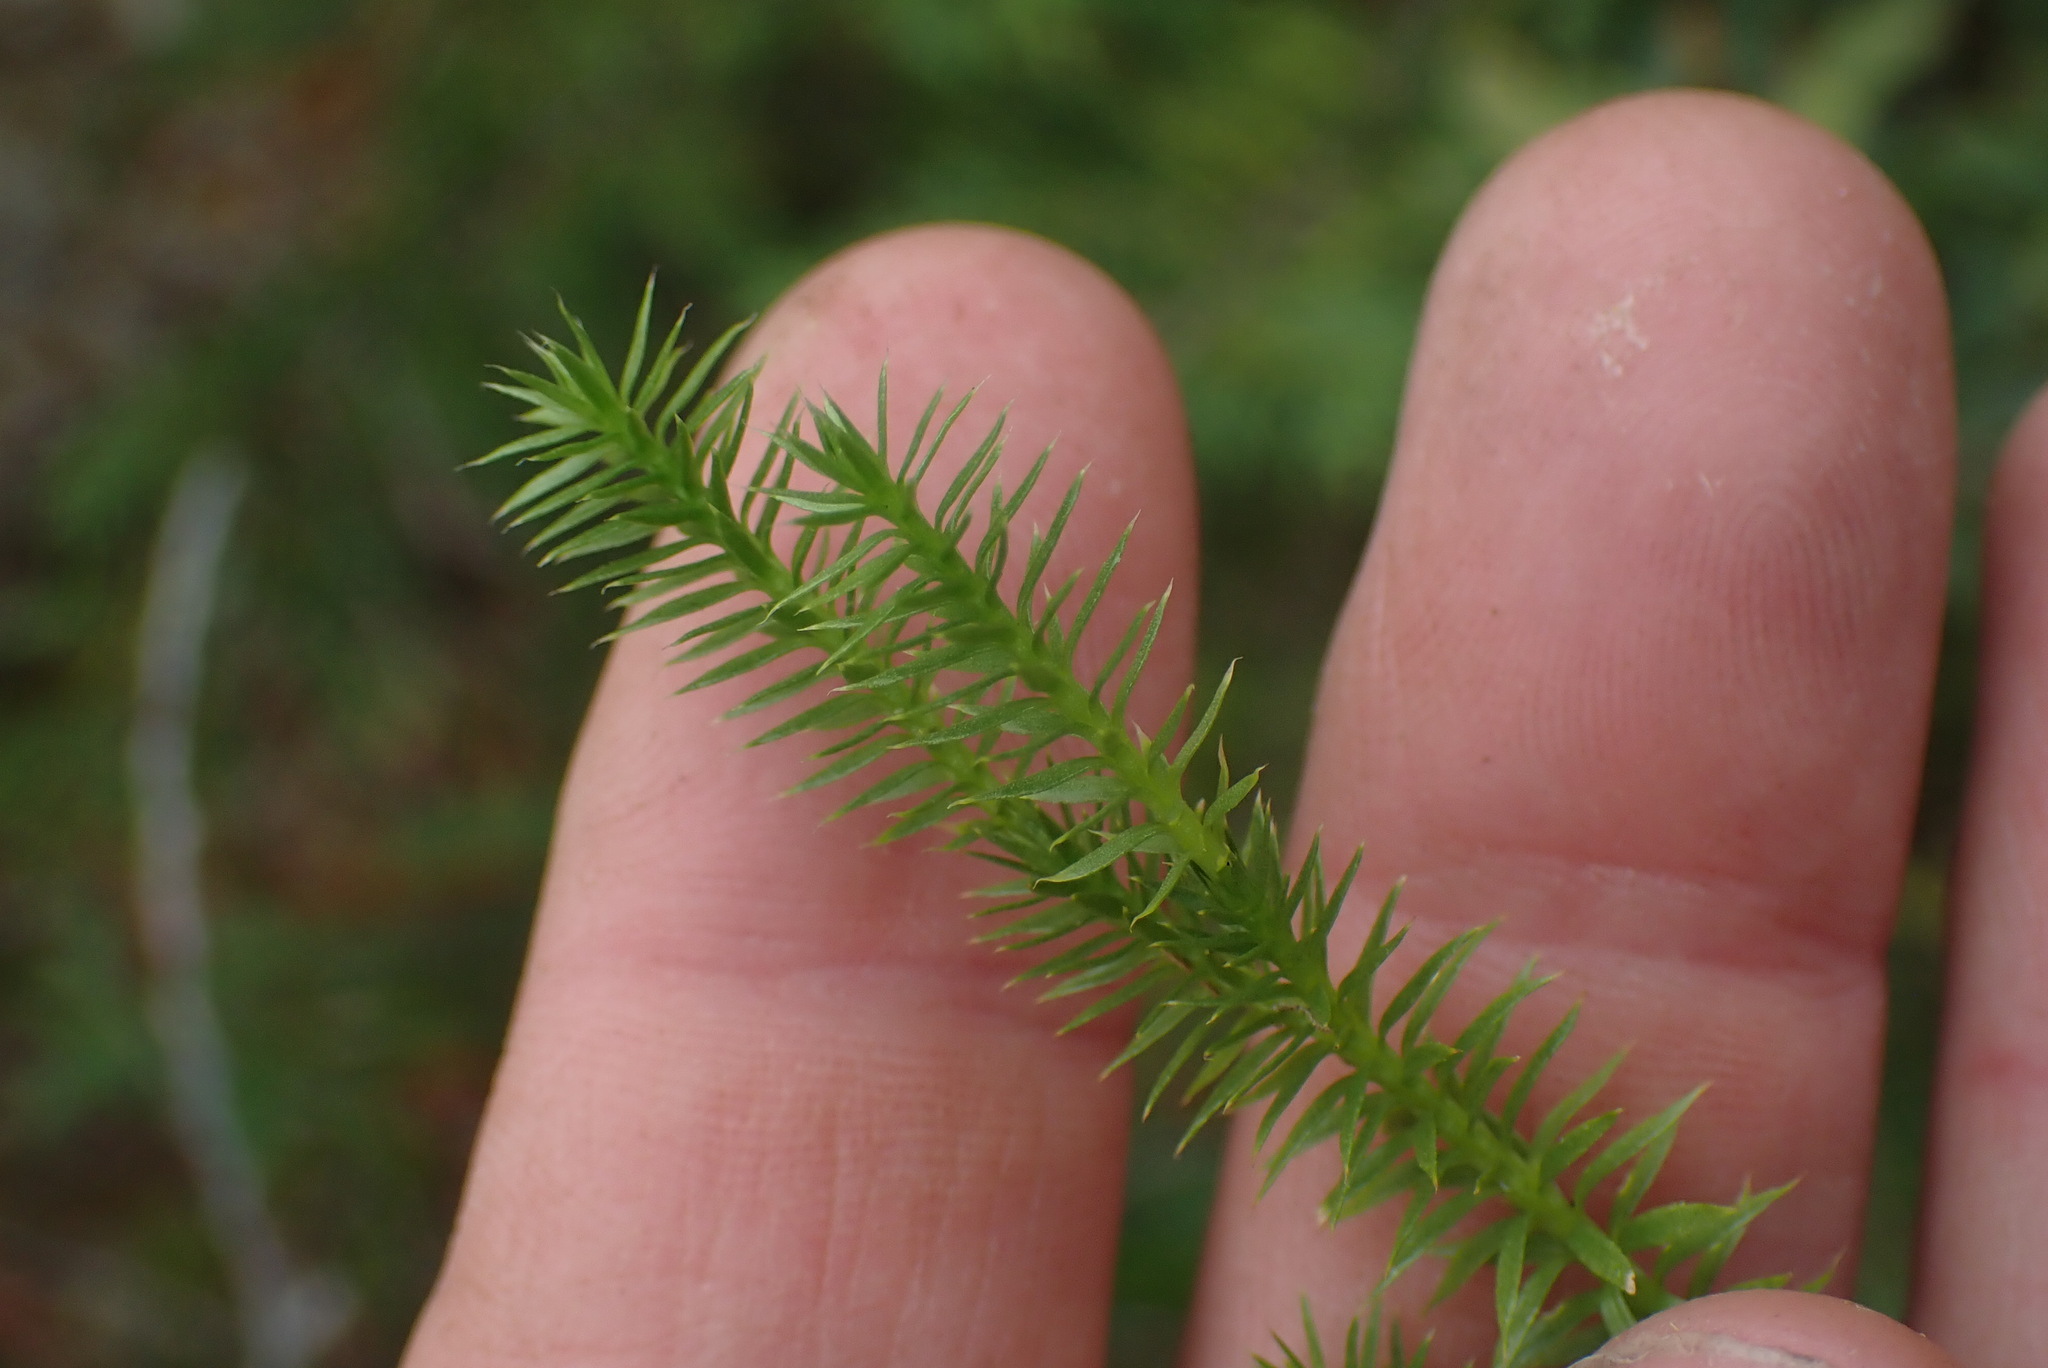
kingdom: Plantae
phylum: Tracheophyta
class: Lycopodiopsida
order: Lycopodiales
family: Lycopodiaceae
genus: Spinulum
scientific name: Spinulum annotinum
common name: Interrupted club-moss
